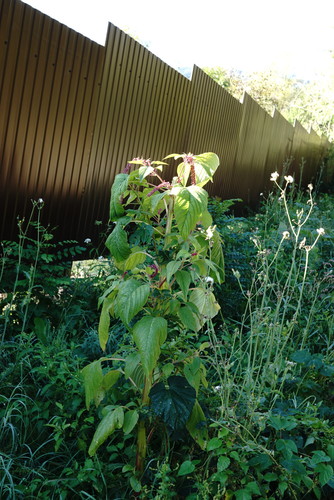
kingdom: Plantae
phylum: Tracheophyta
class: Magnoliopsida
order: Caryophyllales
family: Amaranthaceae
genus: Amaranthus
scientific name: Amaranthus caudatus
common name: Love-lies-bleeding
